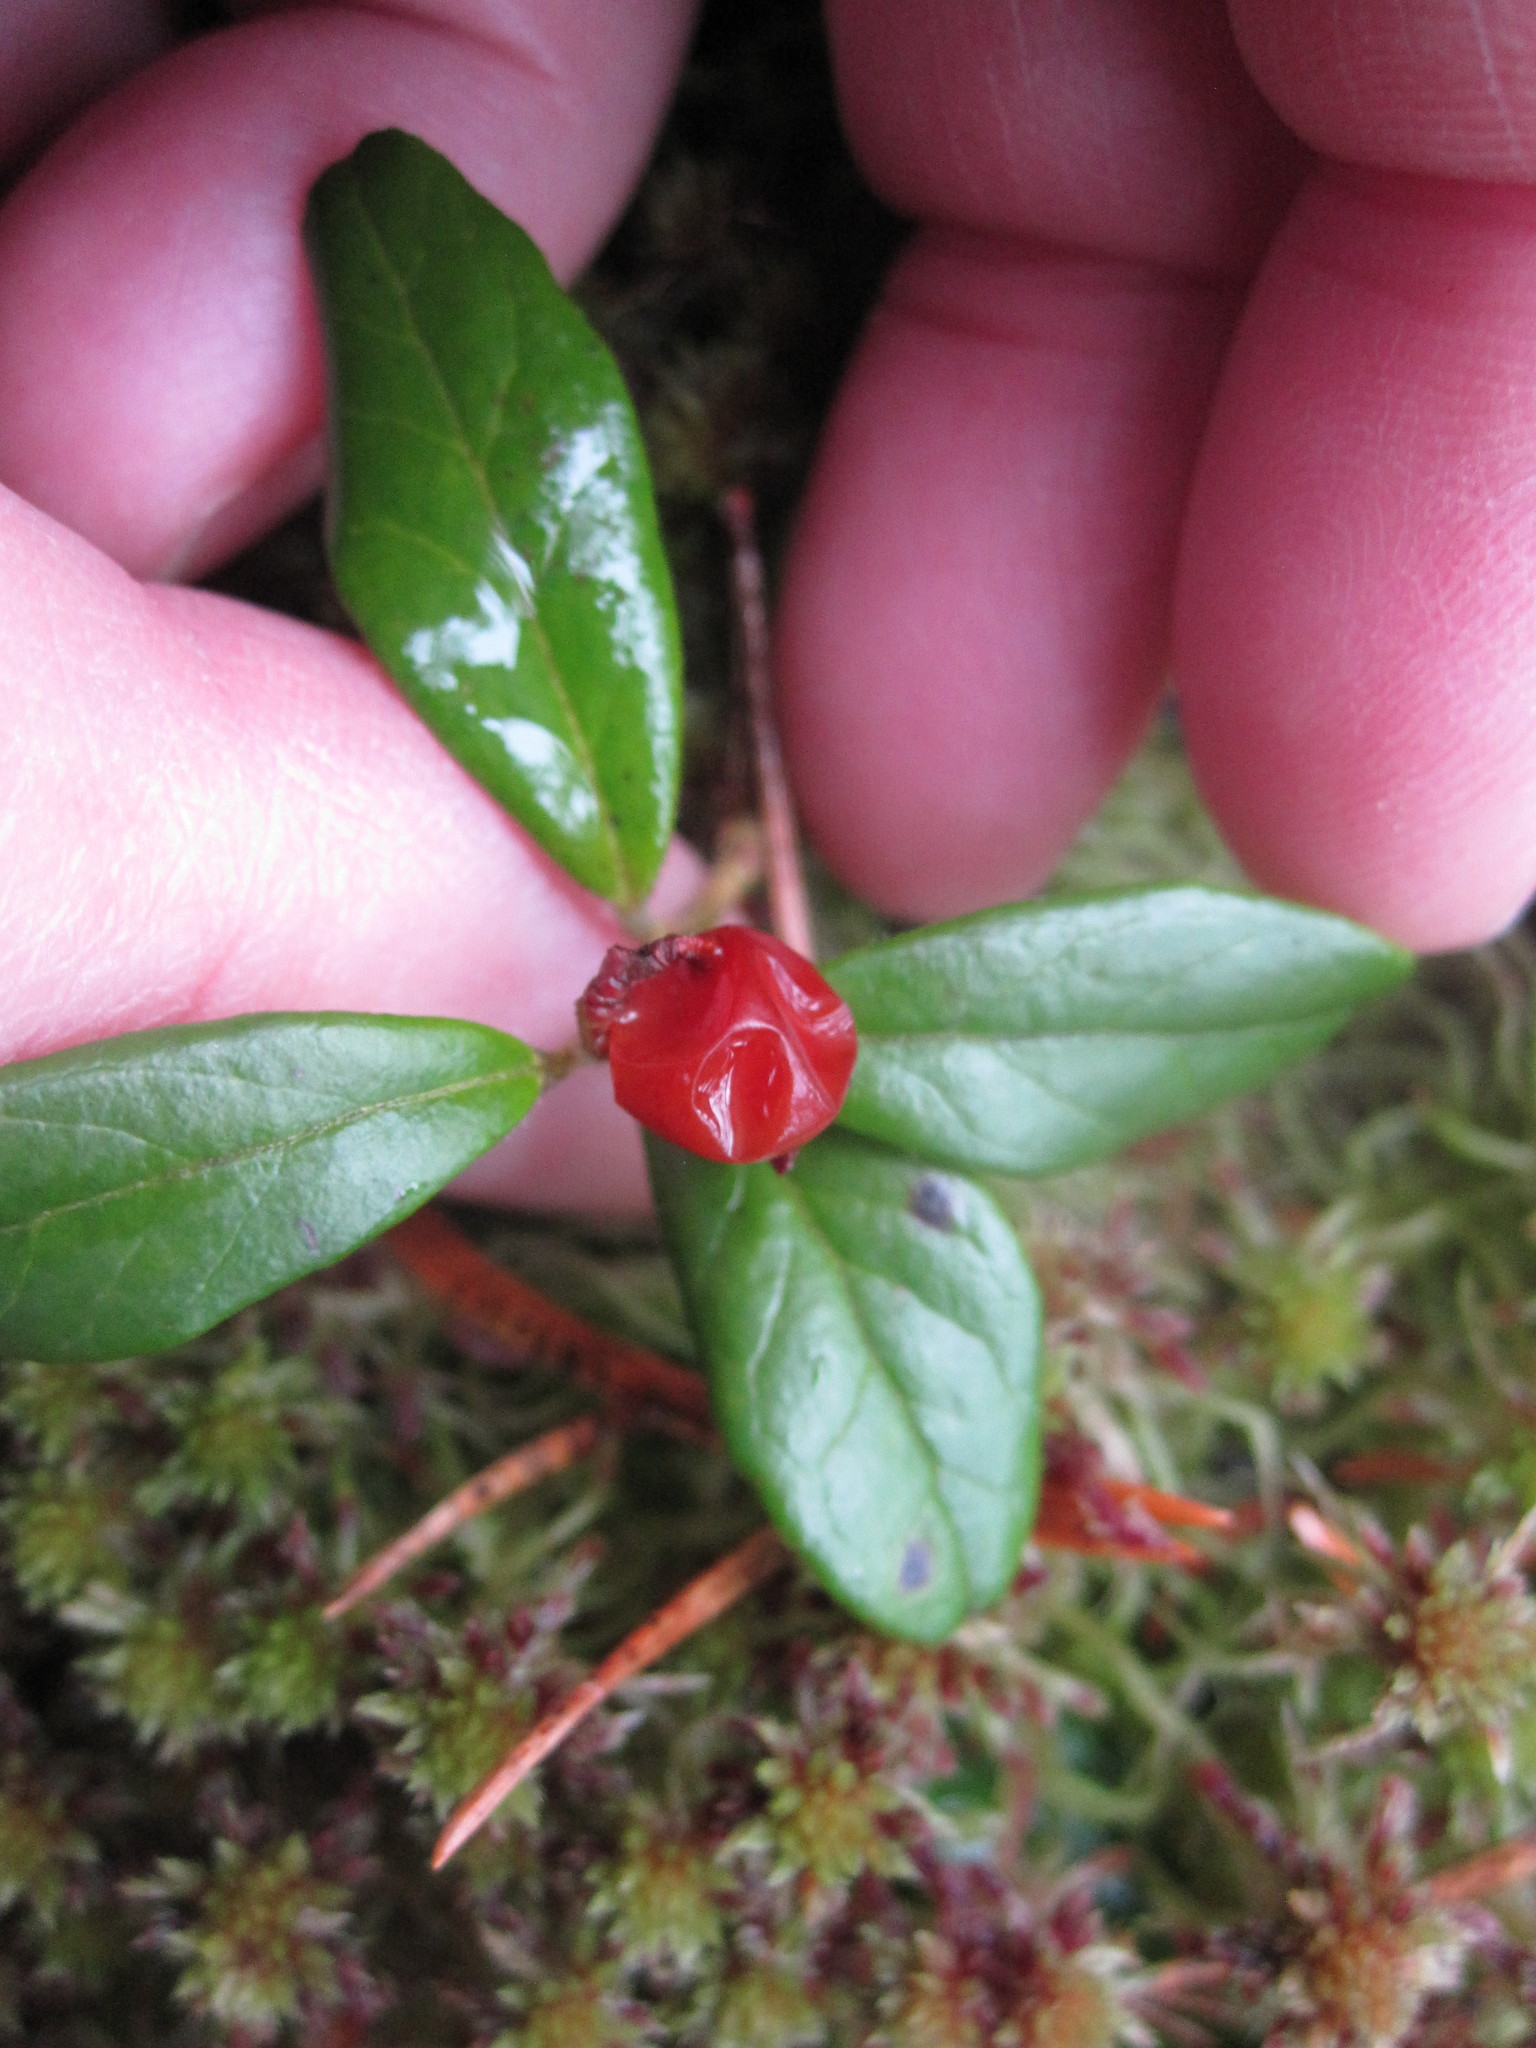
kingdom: Plantae
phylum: Tracheophyta
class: Magnoliopsida
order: Ericales
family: Ericaceae
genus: Vaccinium
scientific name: Vaccinium vitis-idaea
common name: Cowberry
